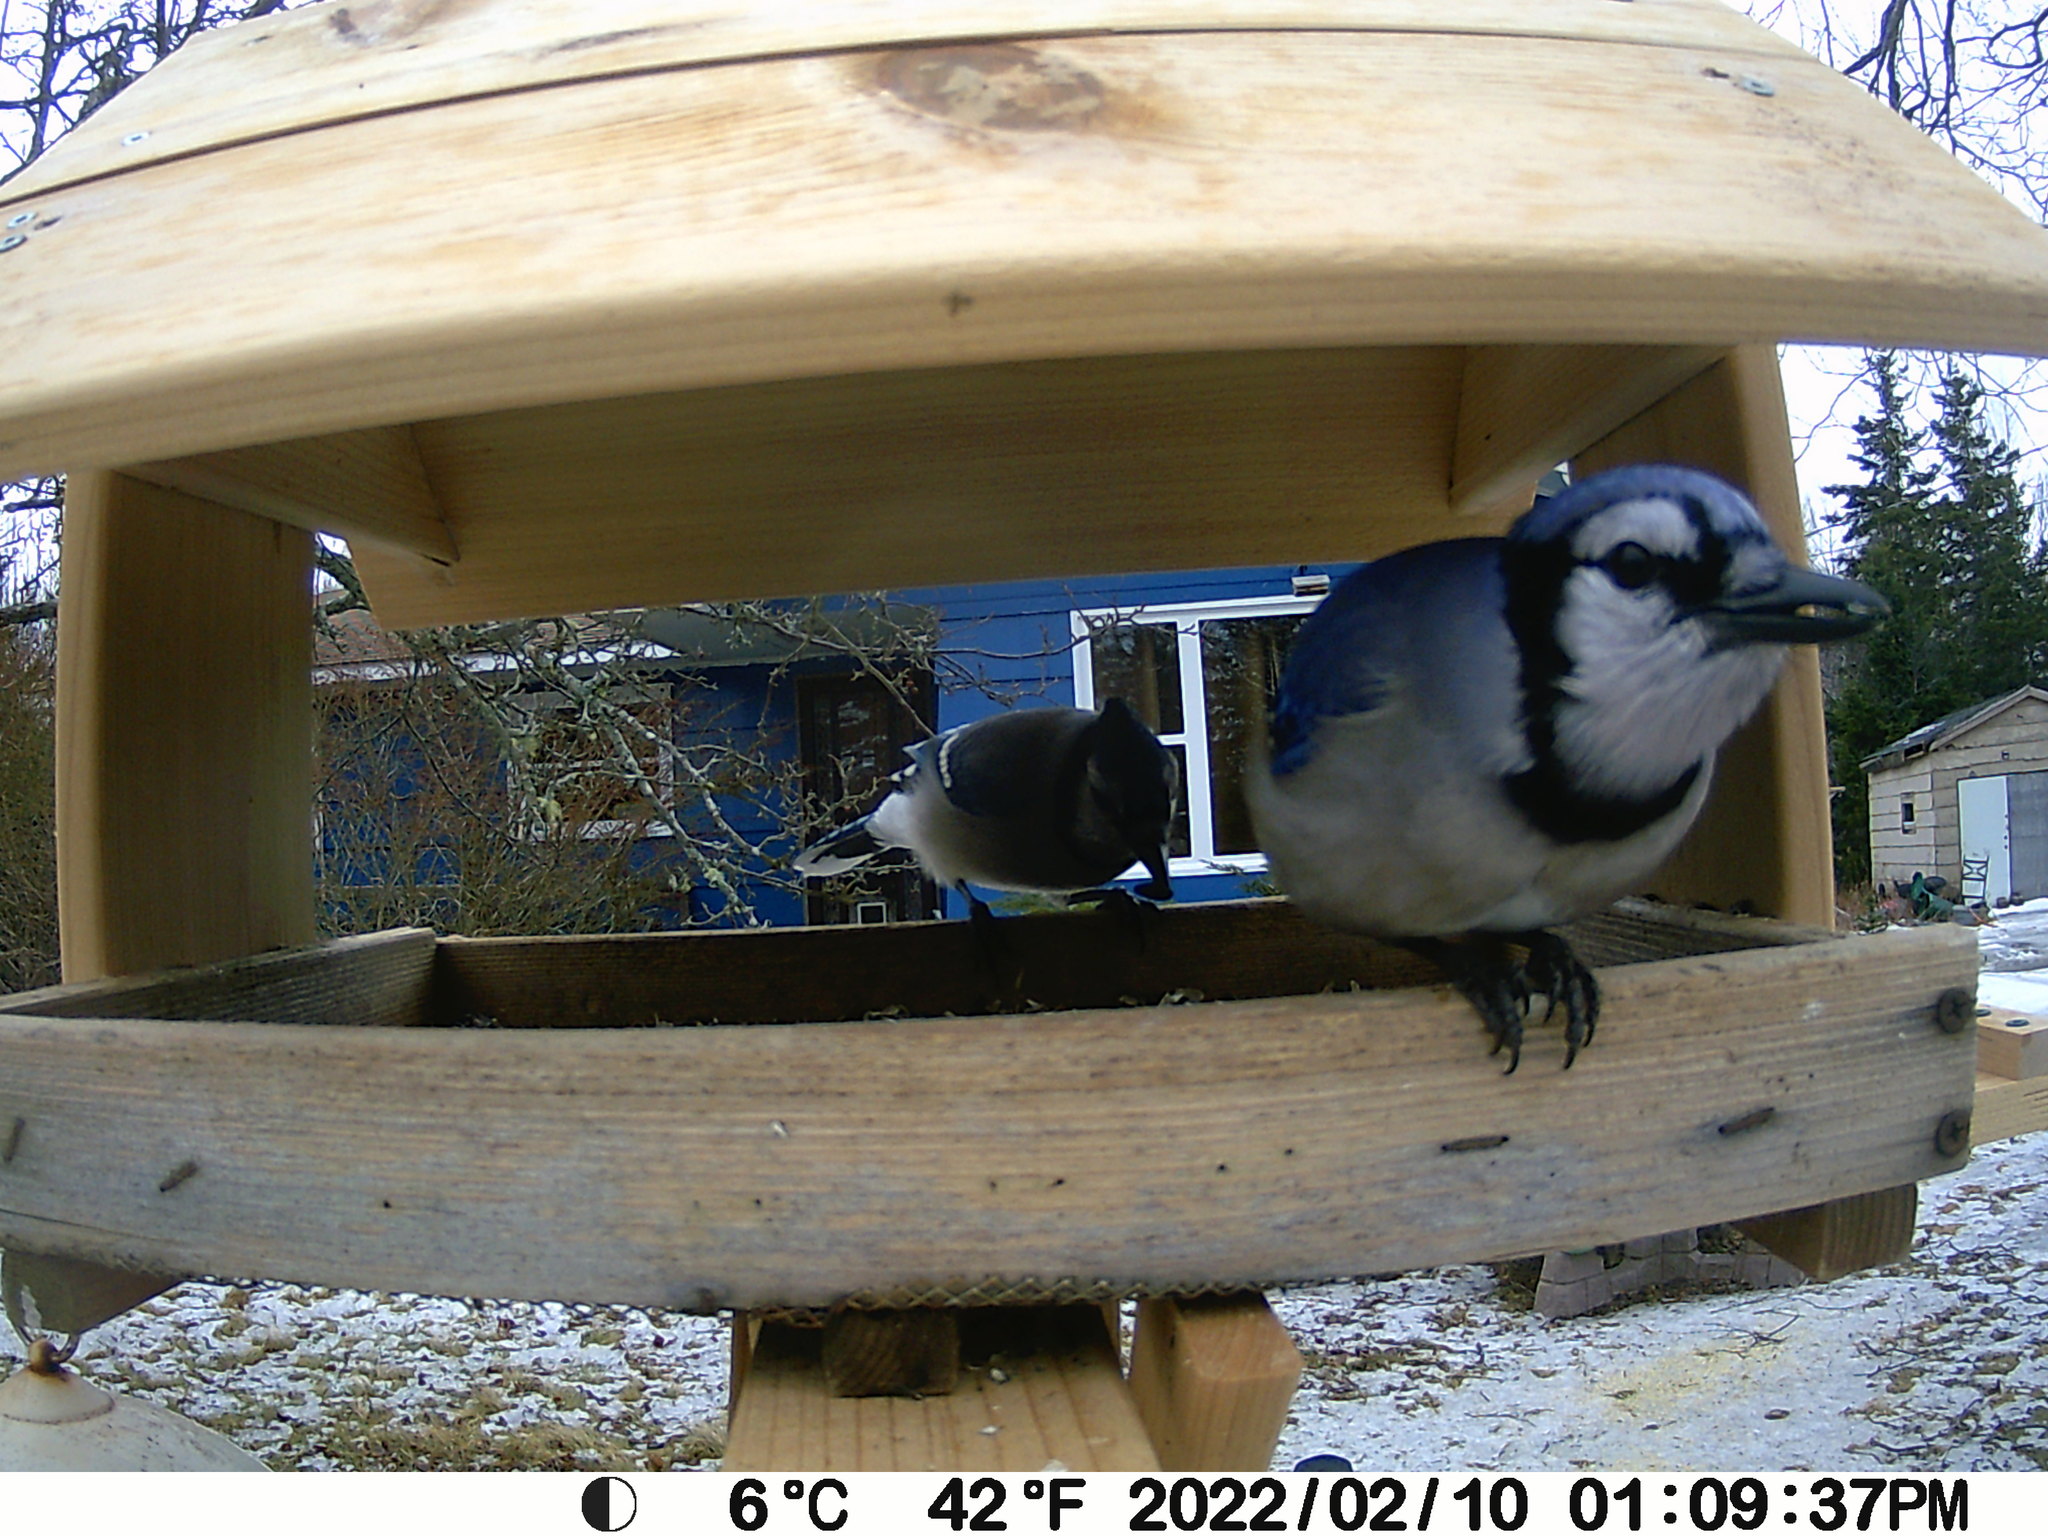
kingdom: Animalia
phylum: Chordata
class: Aves
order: Passeriformes
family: Corvidae
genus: Cyanocitta
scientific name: Cyanocitta cristata
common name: Blue jay
